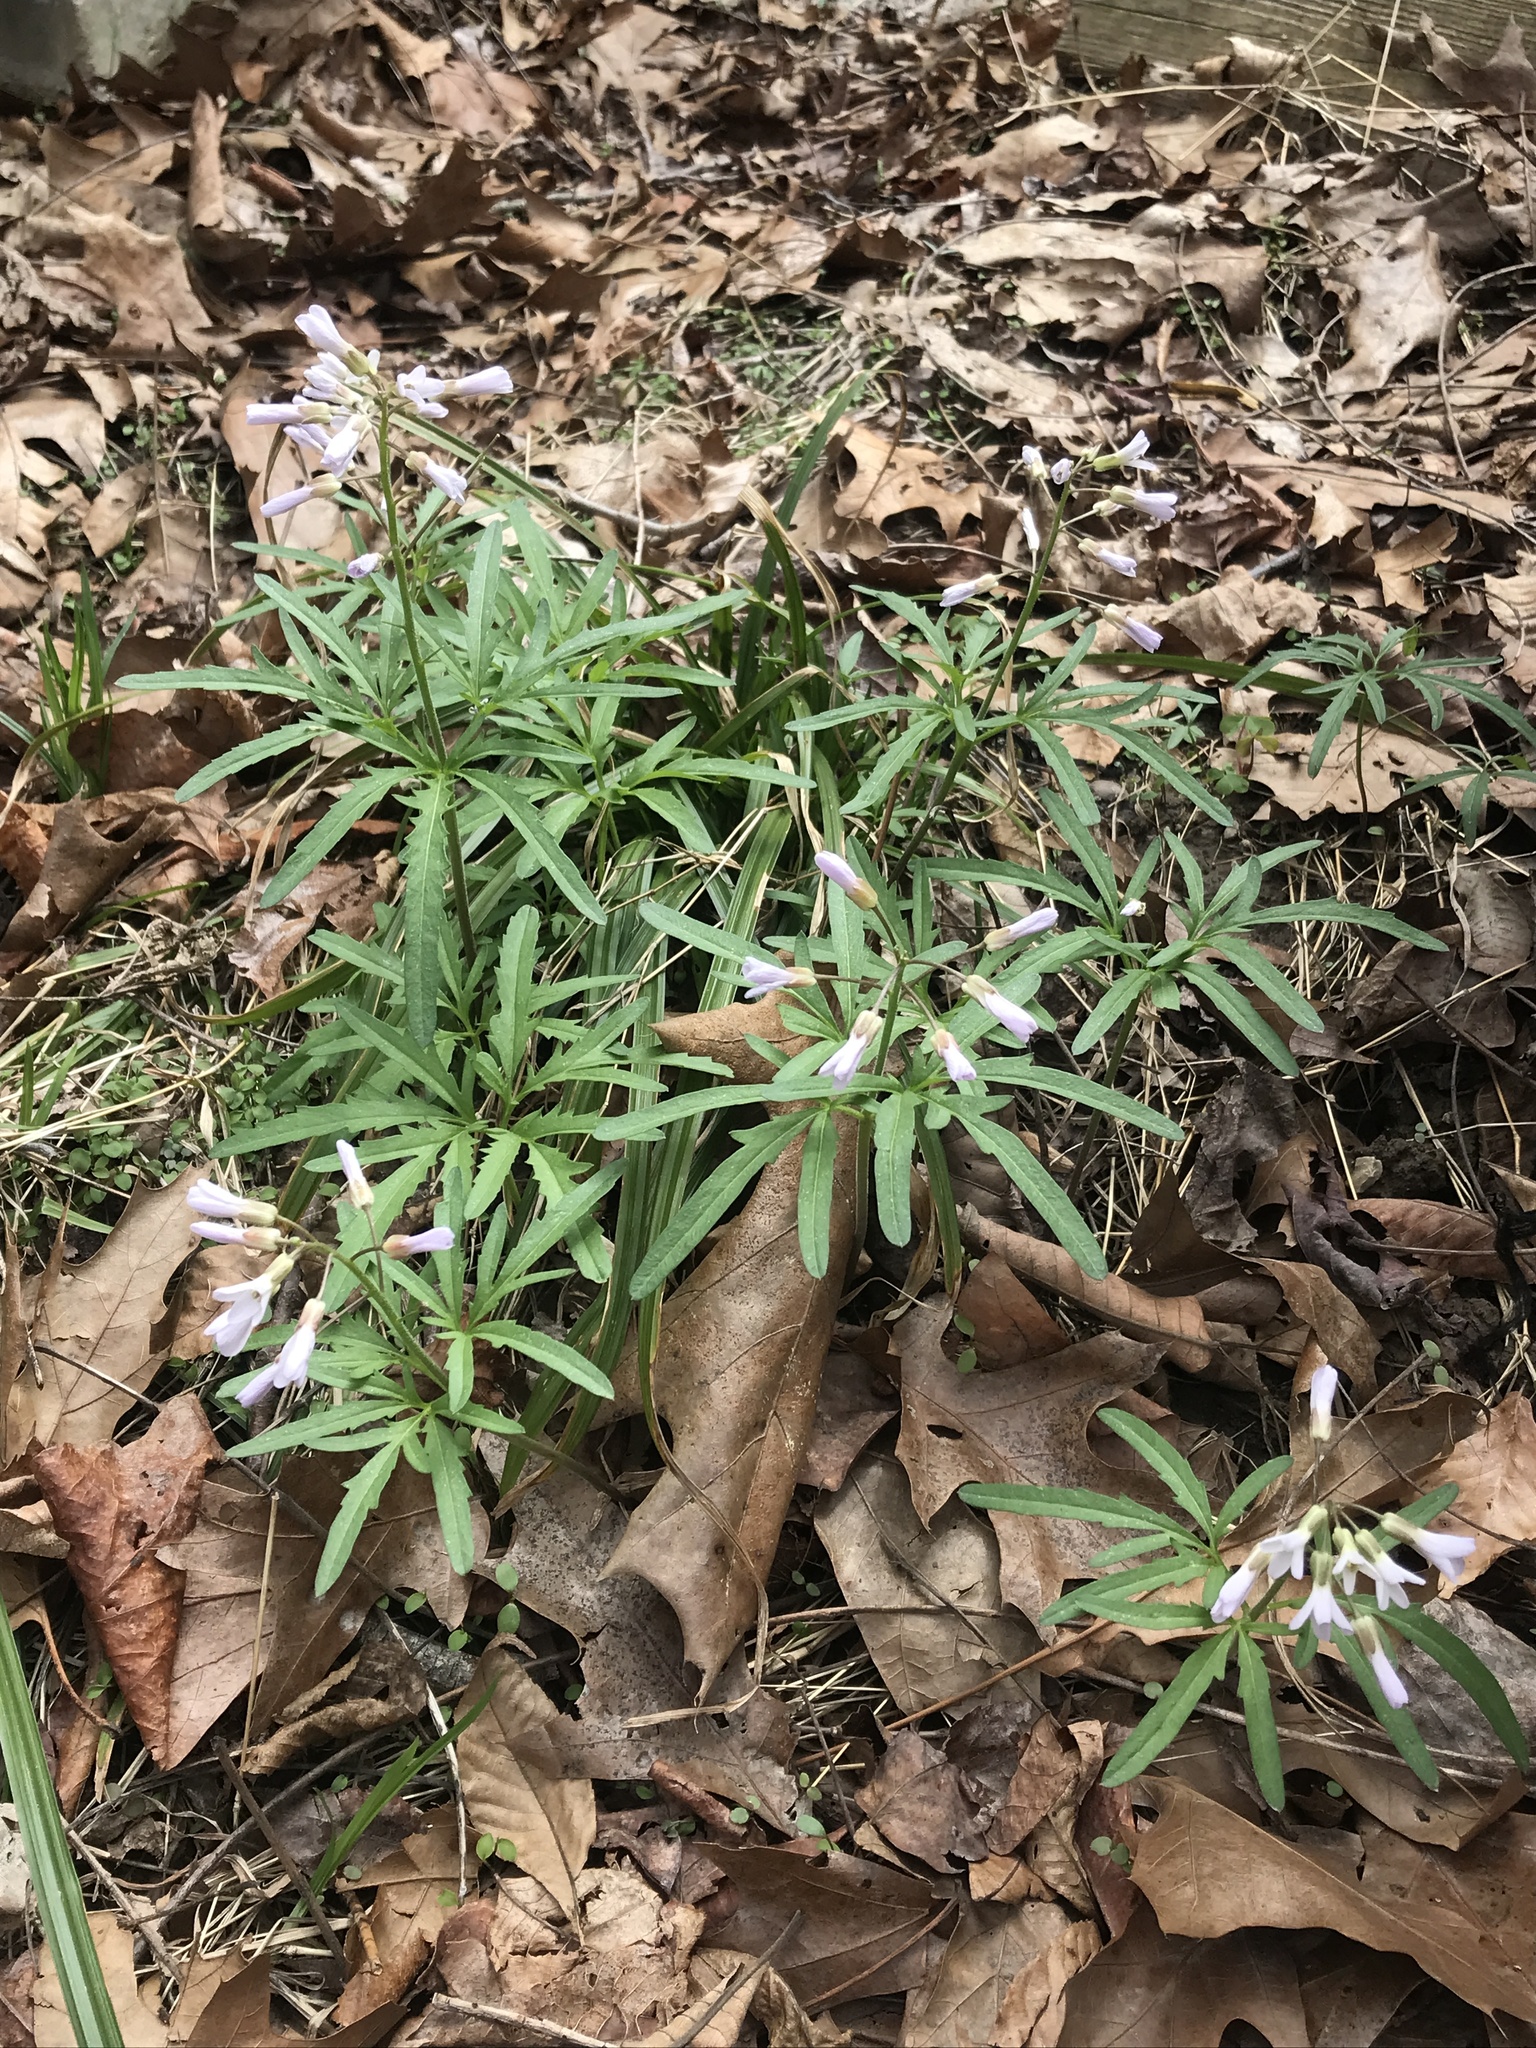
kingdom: Plantae
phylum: Tracheophyta
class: Magnoliopsida
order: Brassicales
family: Brassicaceae
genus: Cardamine
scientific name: Cardamine concatenata
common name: Cut-leaf toothcup
